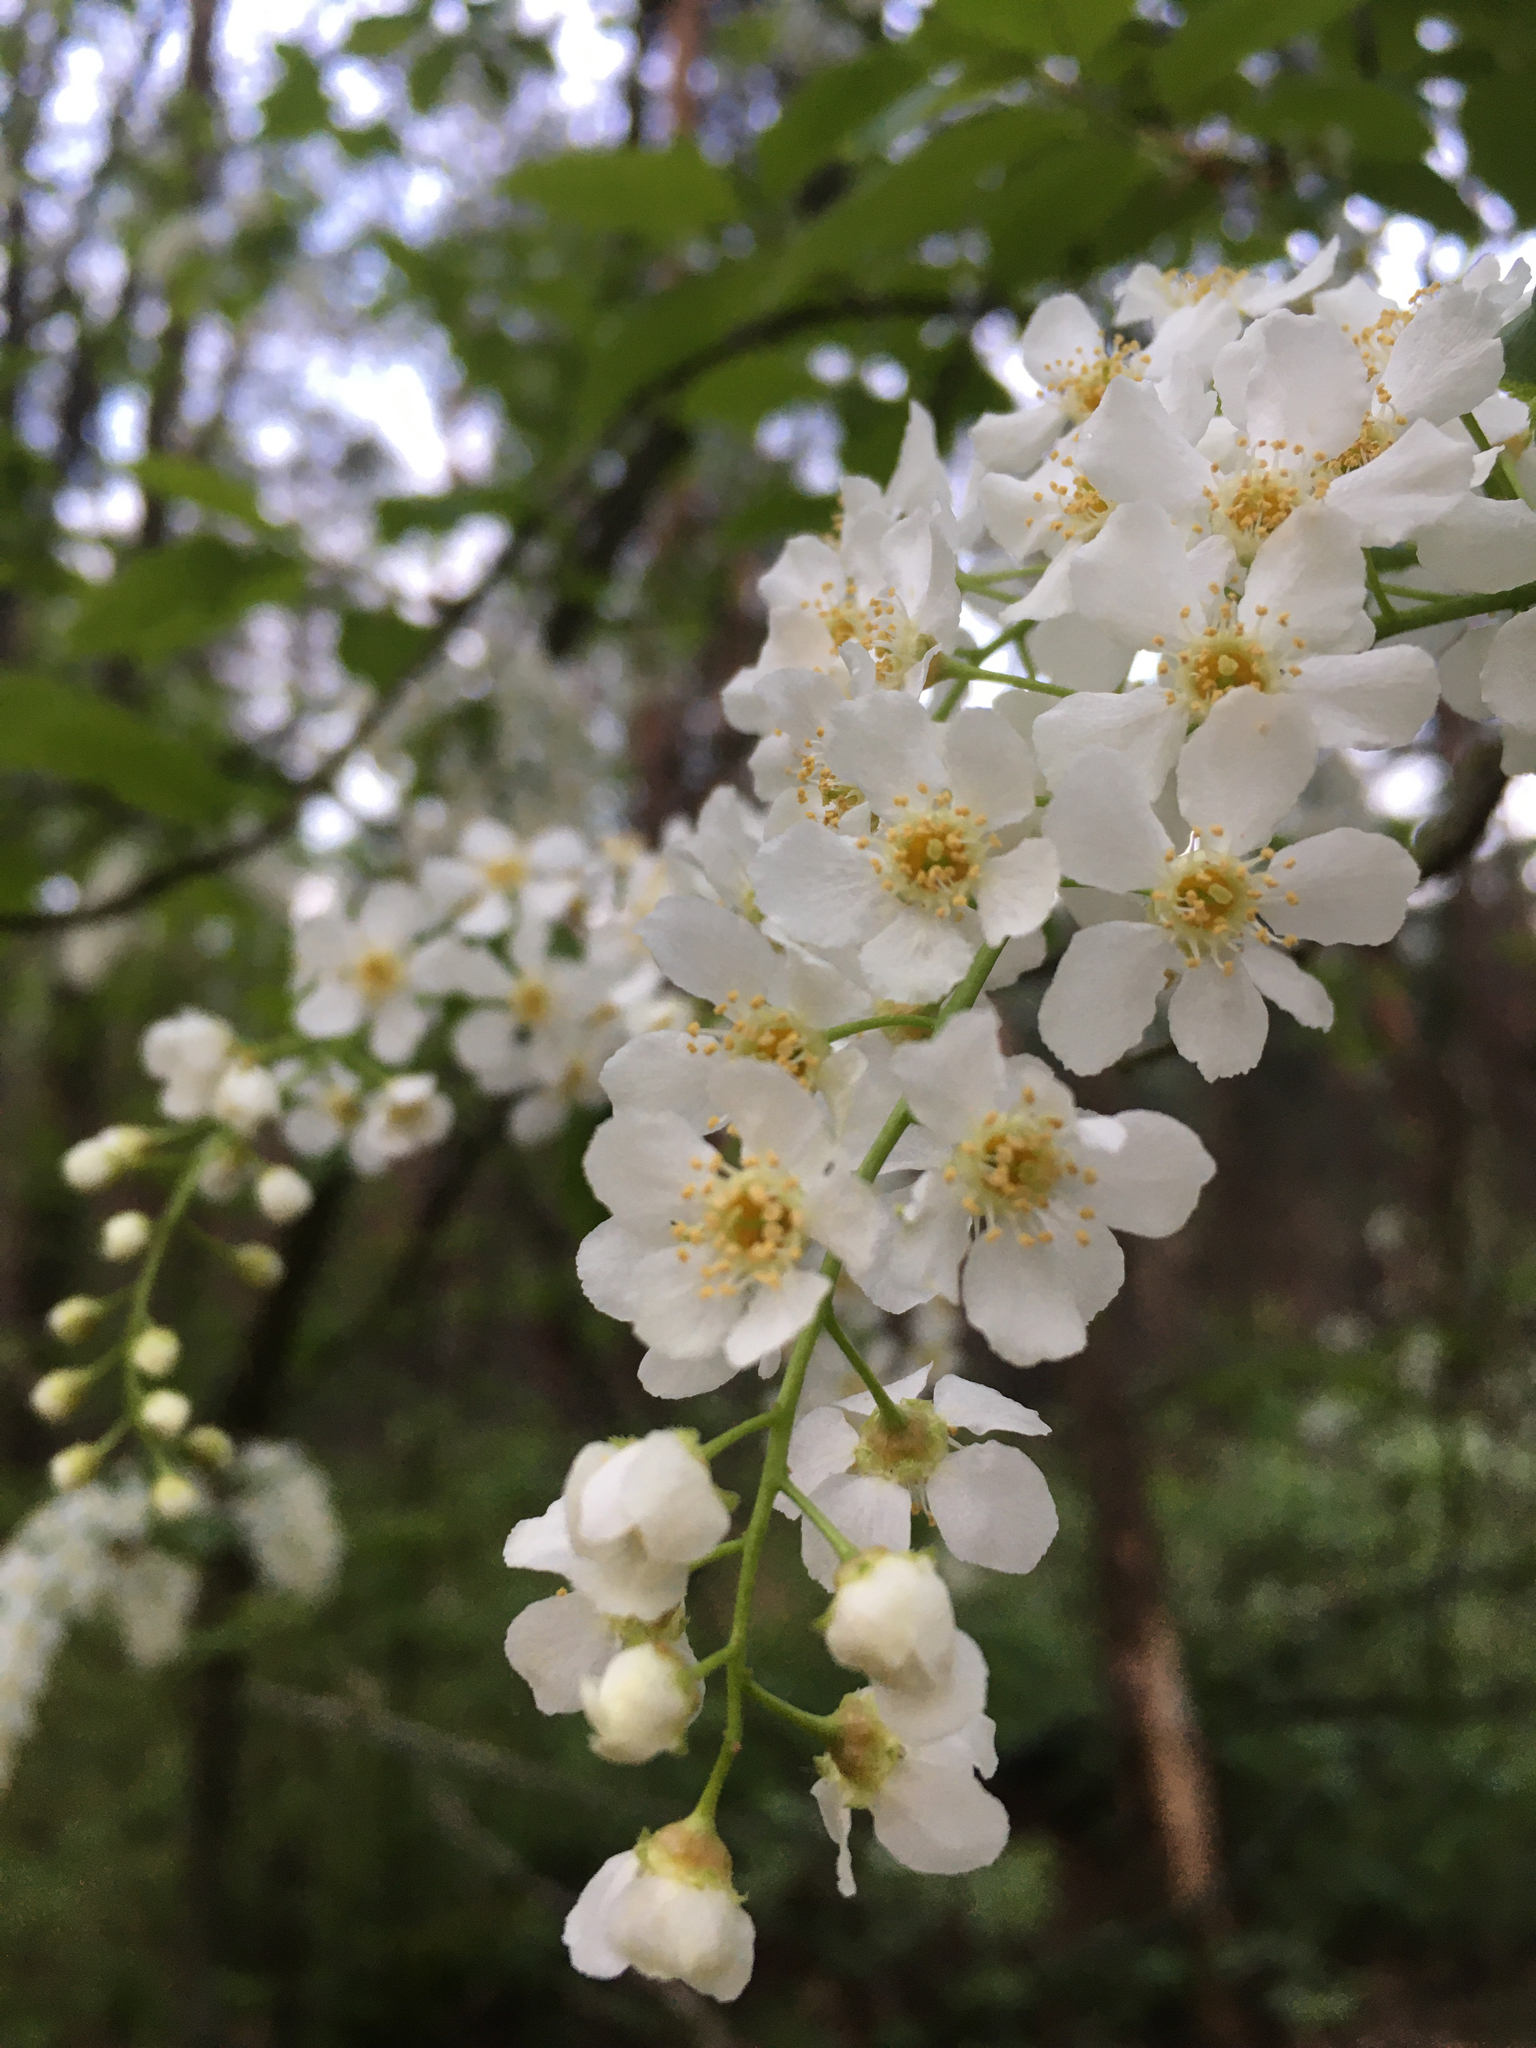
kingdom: Plantae
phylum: Tracheophyta
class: Magnoliopsida
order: Rosales
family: Rosaceae
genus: Prunus
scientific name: Prunus padus
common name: Bird cherry
